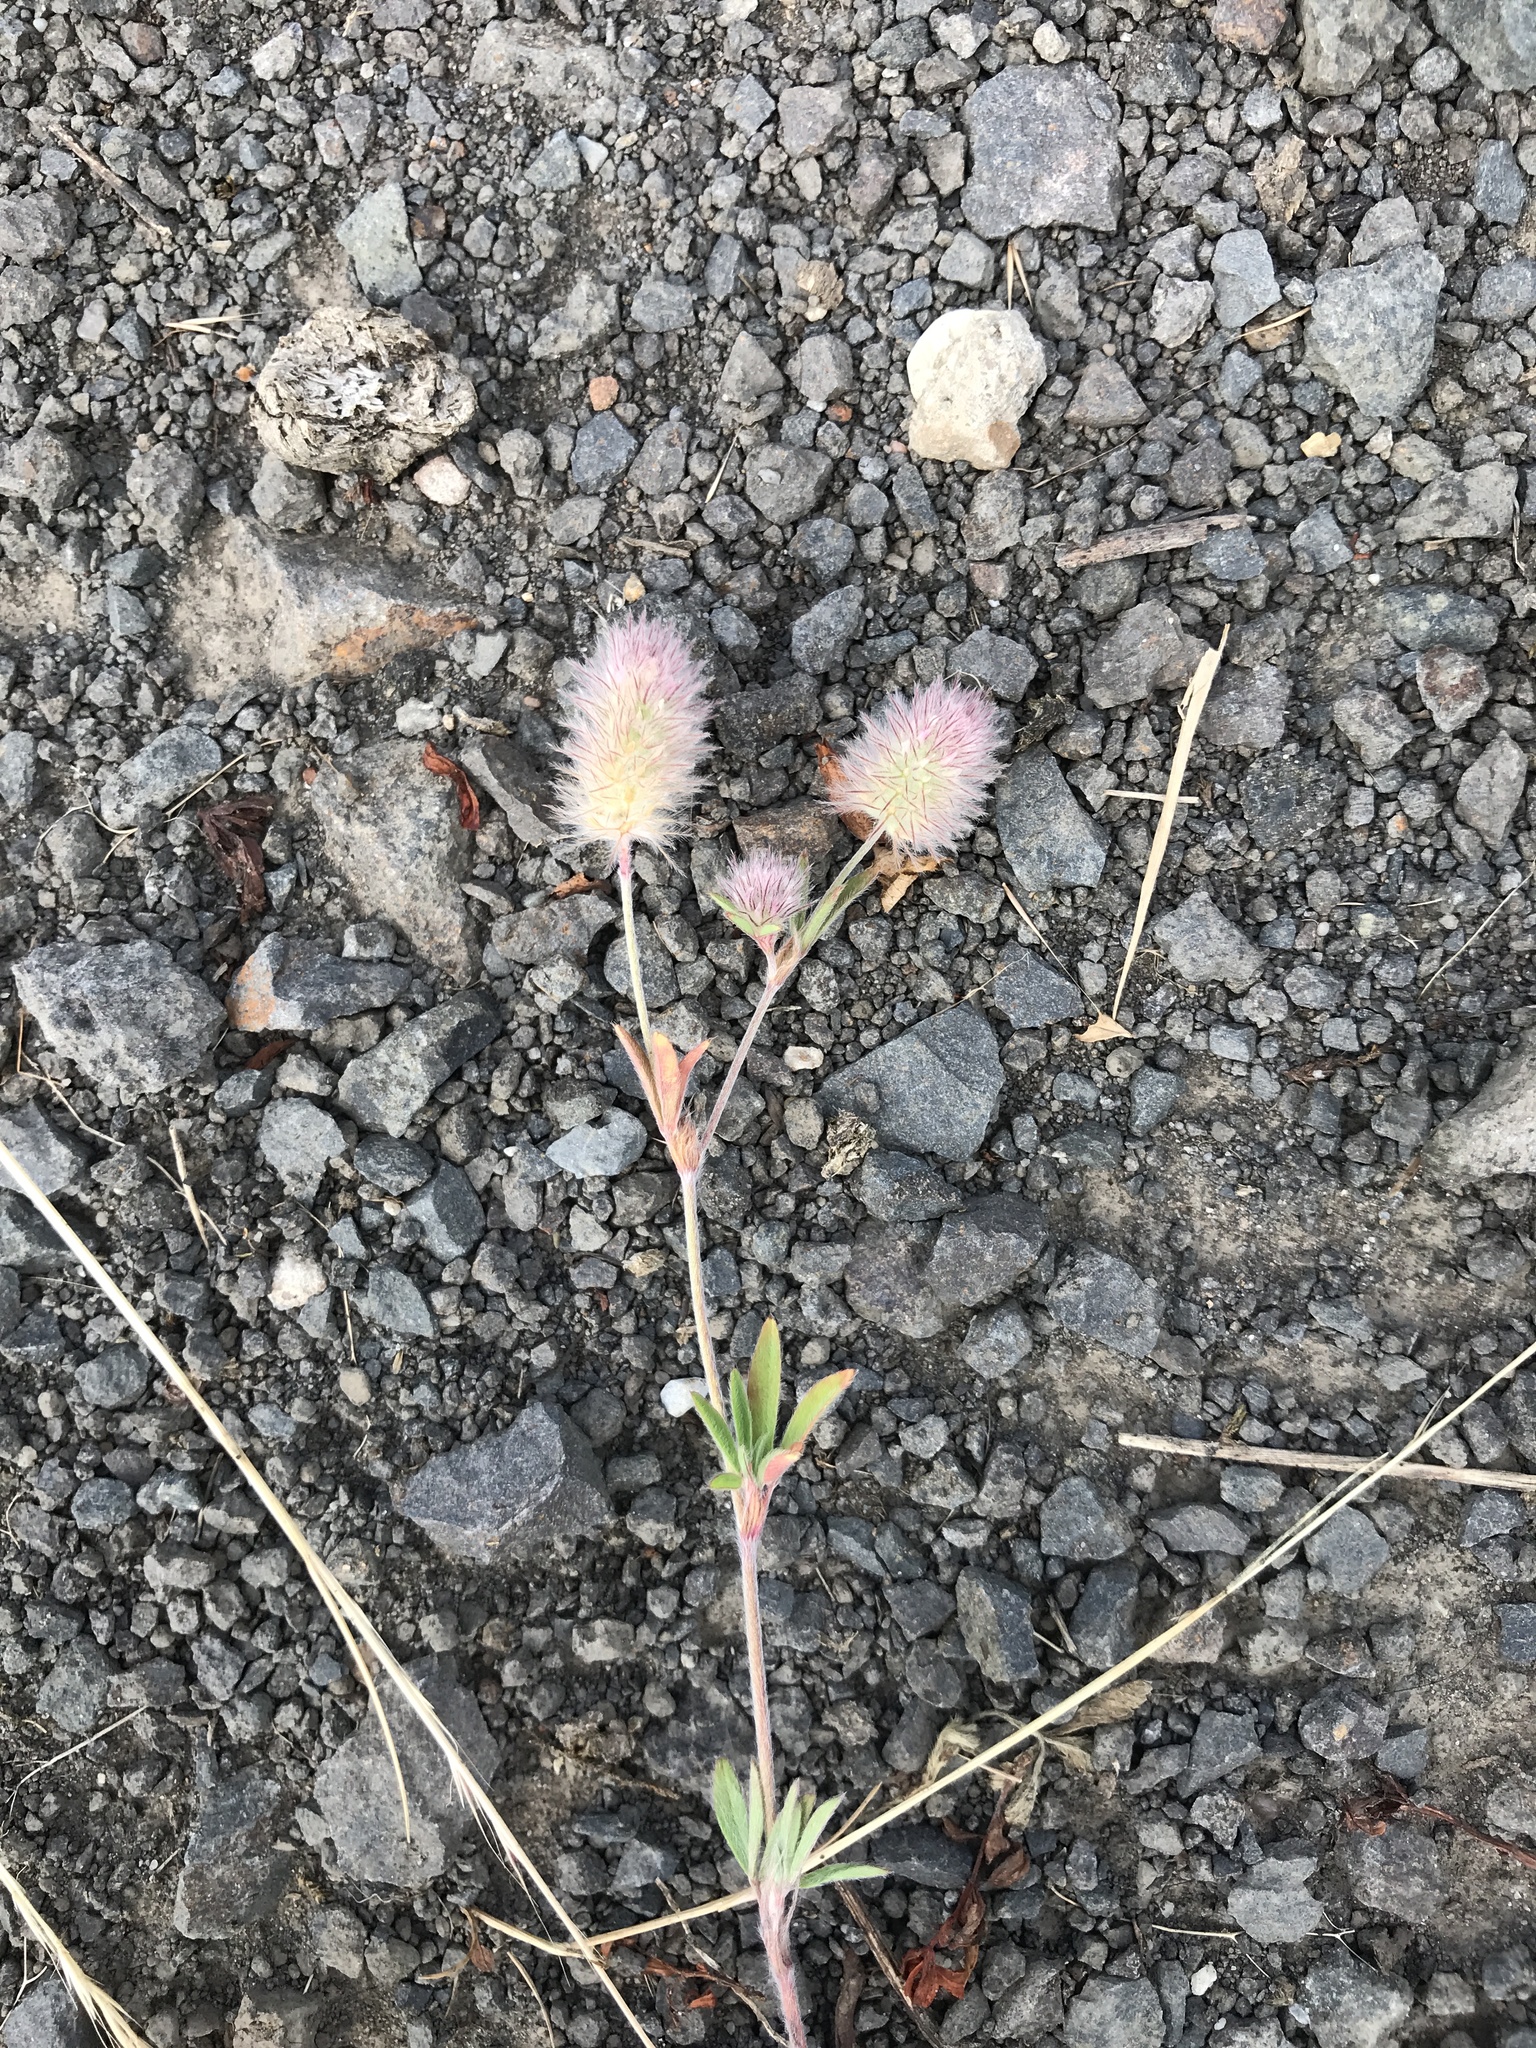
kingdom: Plantae
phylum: Tracheophyta
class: Magnoliopsida
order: Fabales
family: Fabaceae
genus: Trifolium
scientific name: Trifolium arvense
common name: Hare's-foot clover
